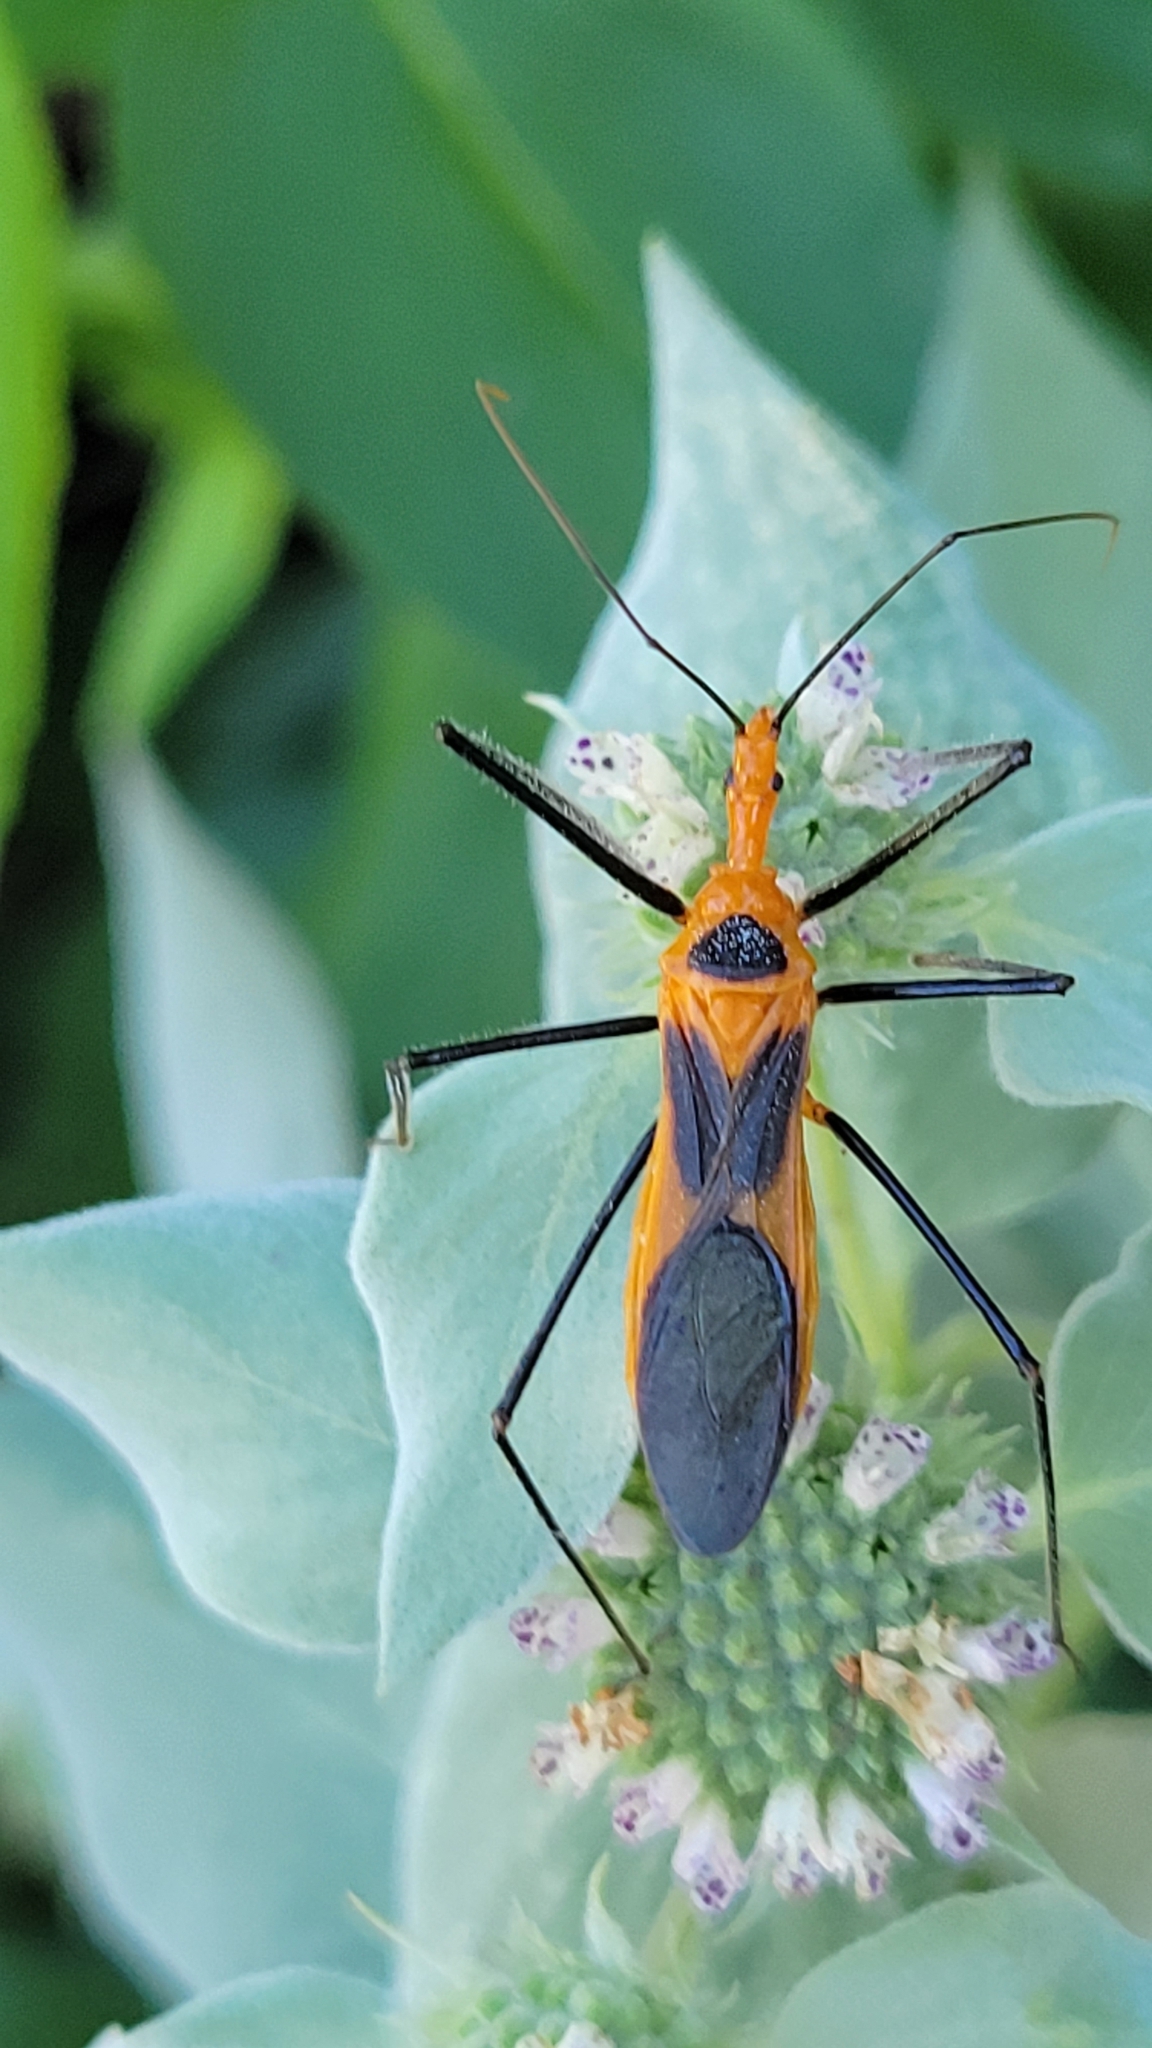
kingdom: Animalia
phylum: Arthropoda
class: Insecta
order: Hemiptera
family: Reduviidae
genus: Zelus
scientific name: Zelus longipes
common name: Milkweed assassin bug
